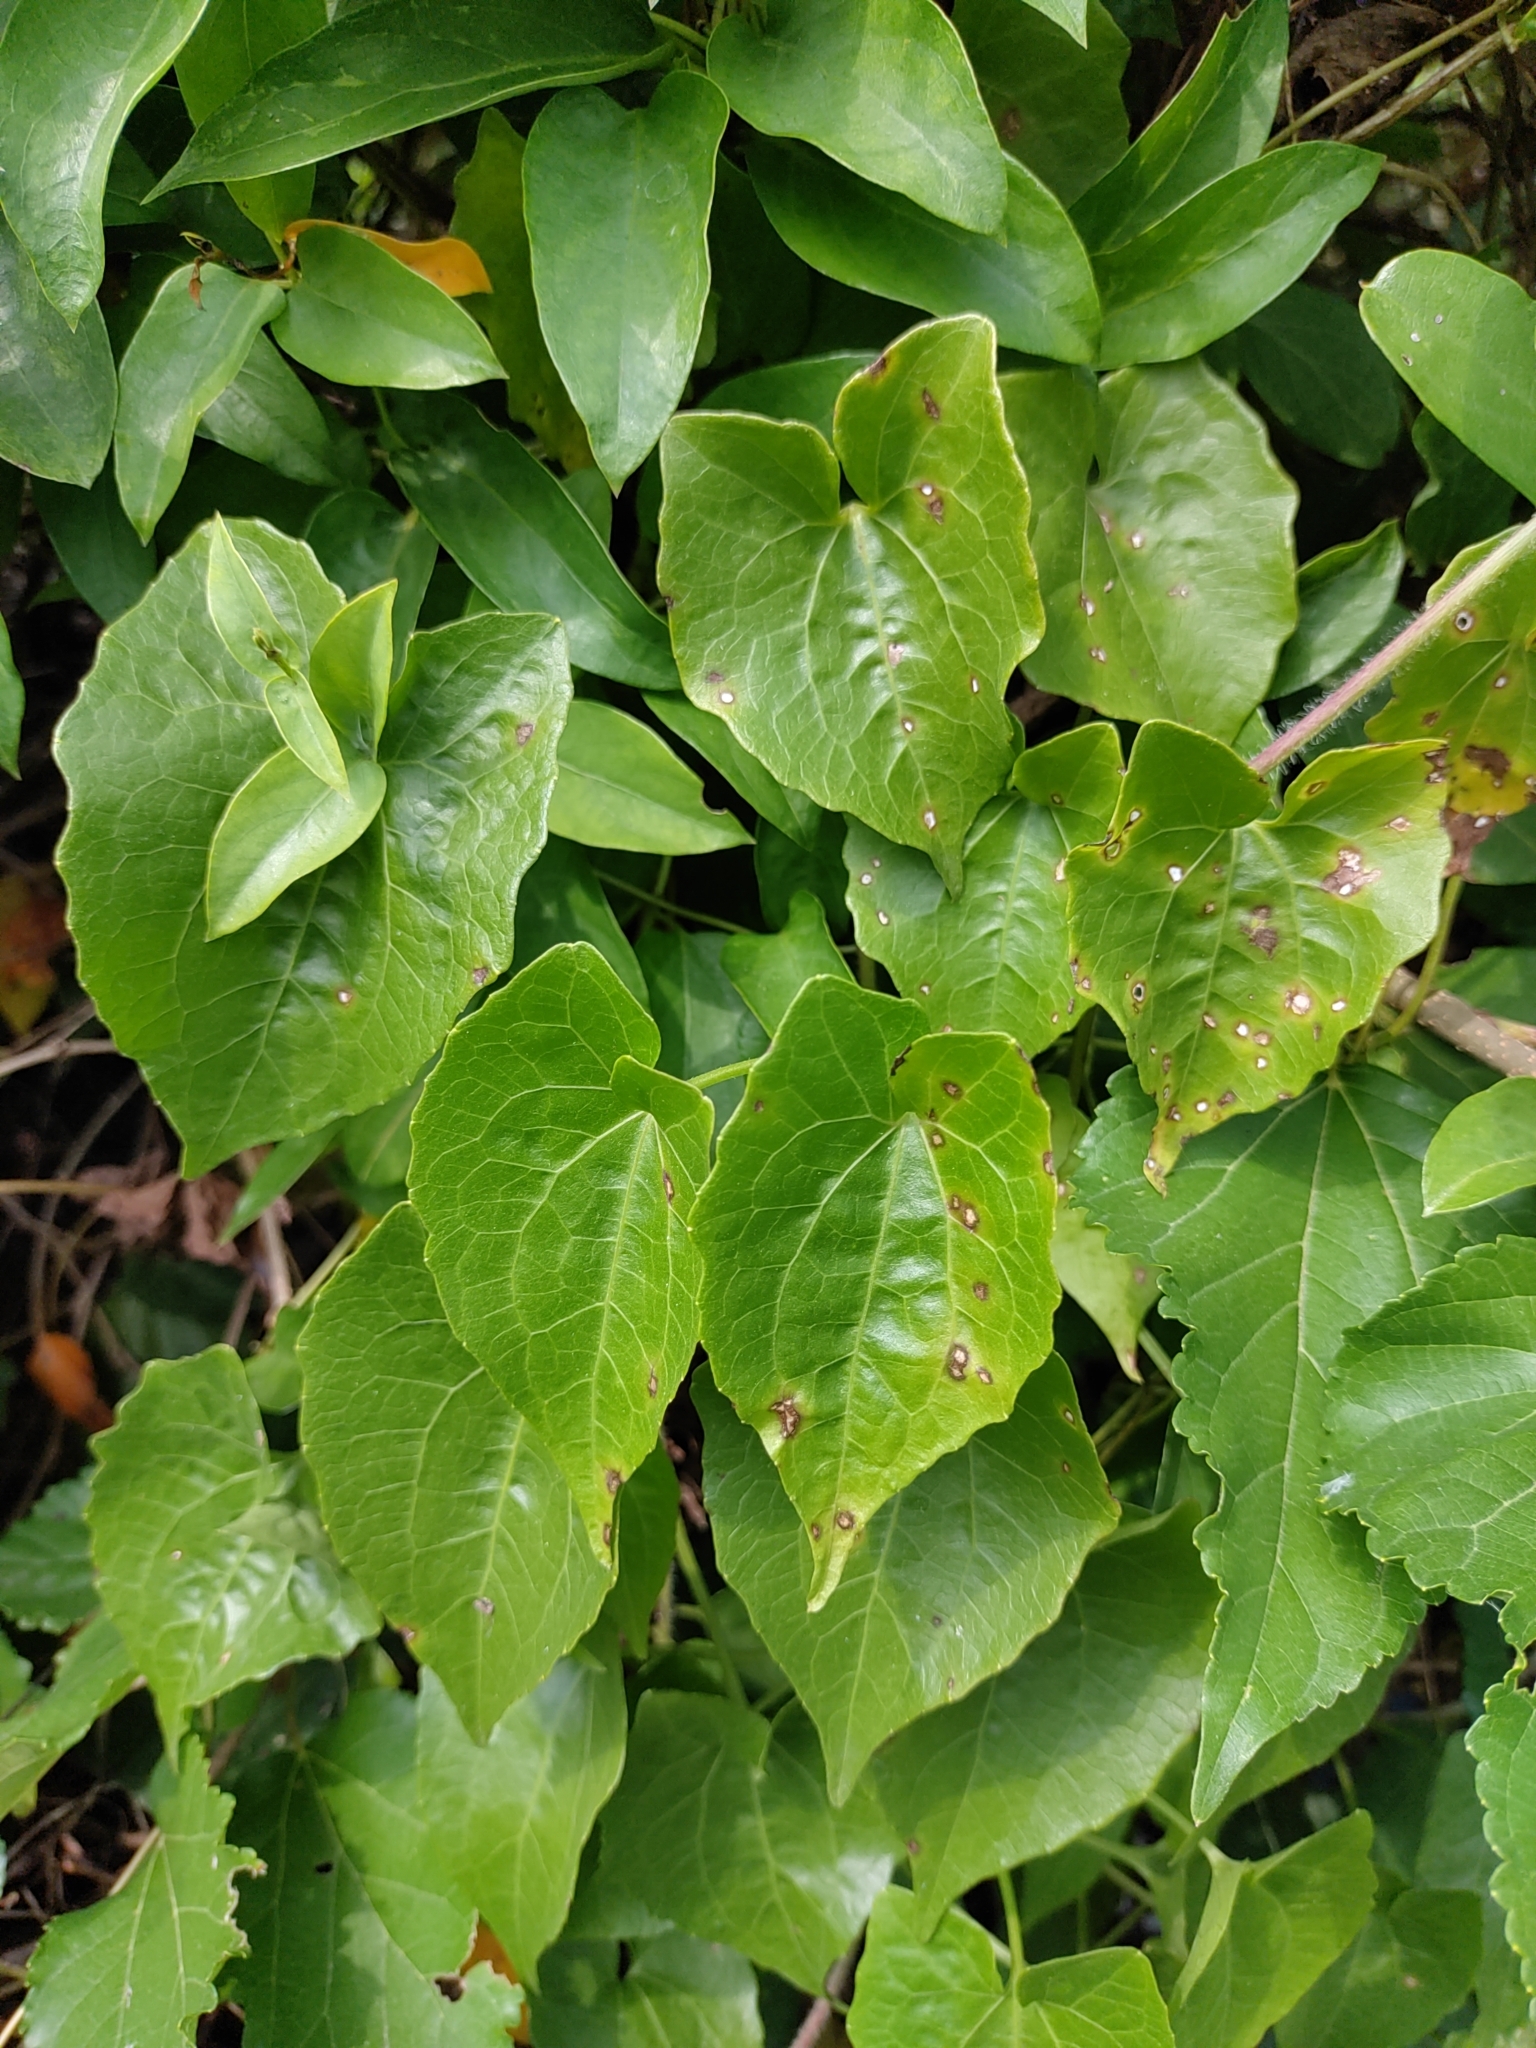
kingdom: Plantae
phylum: Tracheophyta
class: Magnoliopsida
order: Asterales
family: Asteraceae
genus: Mikania
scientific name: Mikania micrantha
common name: Mile-a-minute
